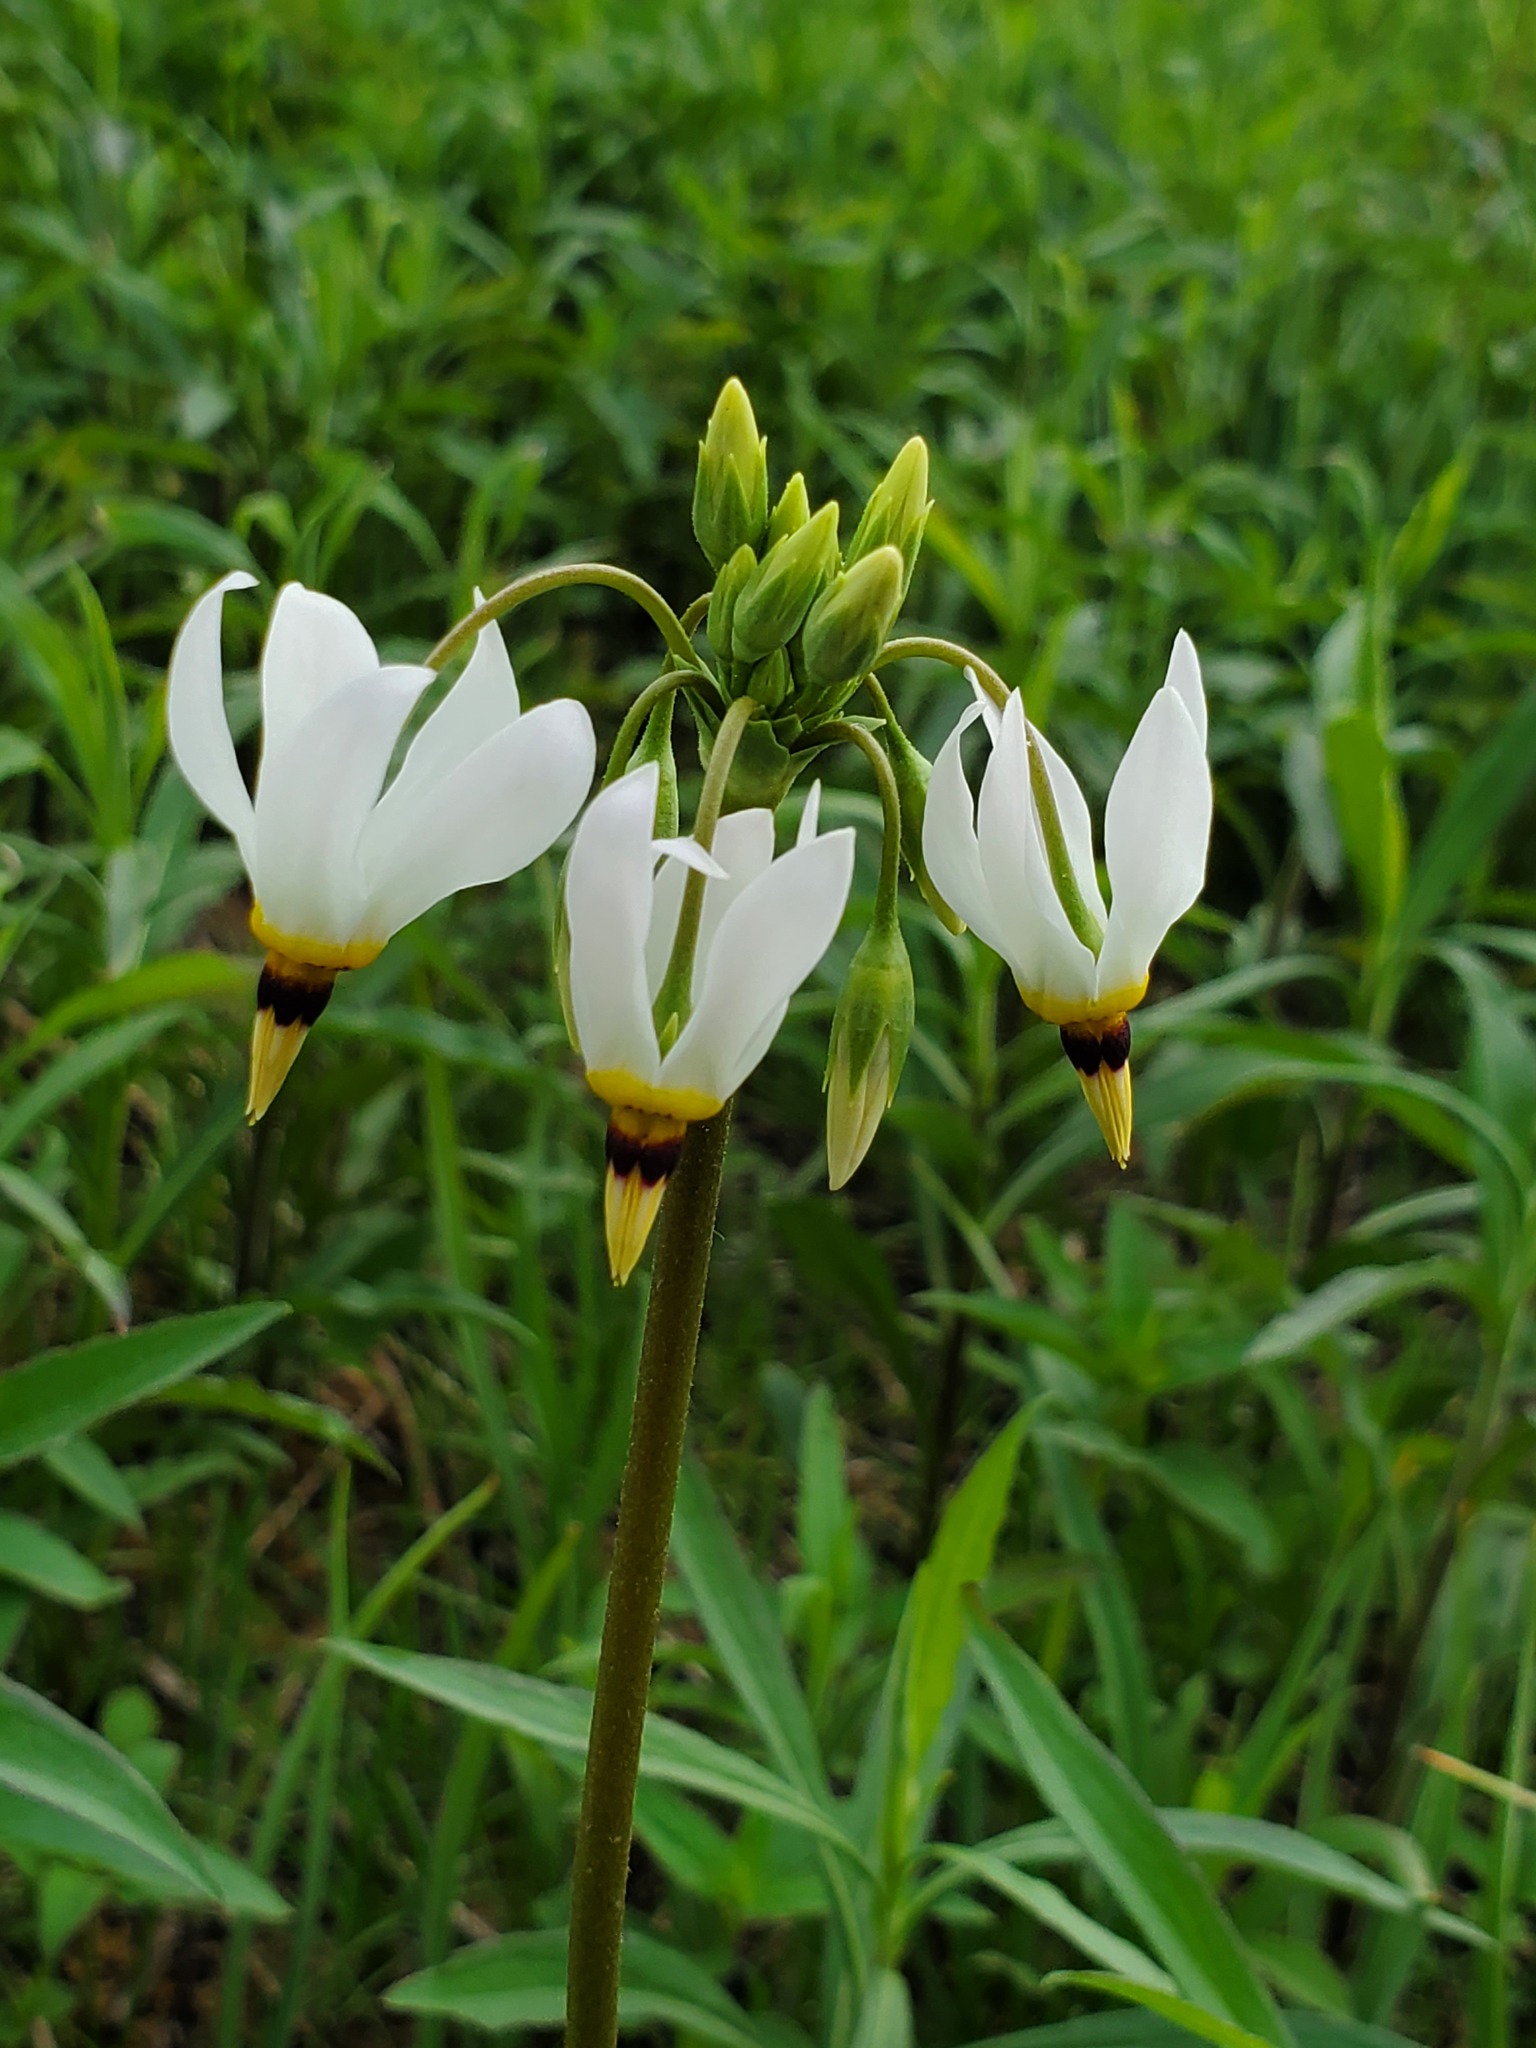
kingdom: Plantae
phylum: Tracheophyta
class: Magnoliopsida
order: Ericales
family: Primulaceae
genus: Dodecatheon
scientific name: Dodecatheon meadia
